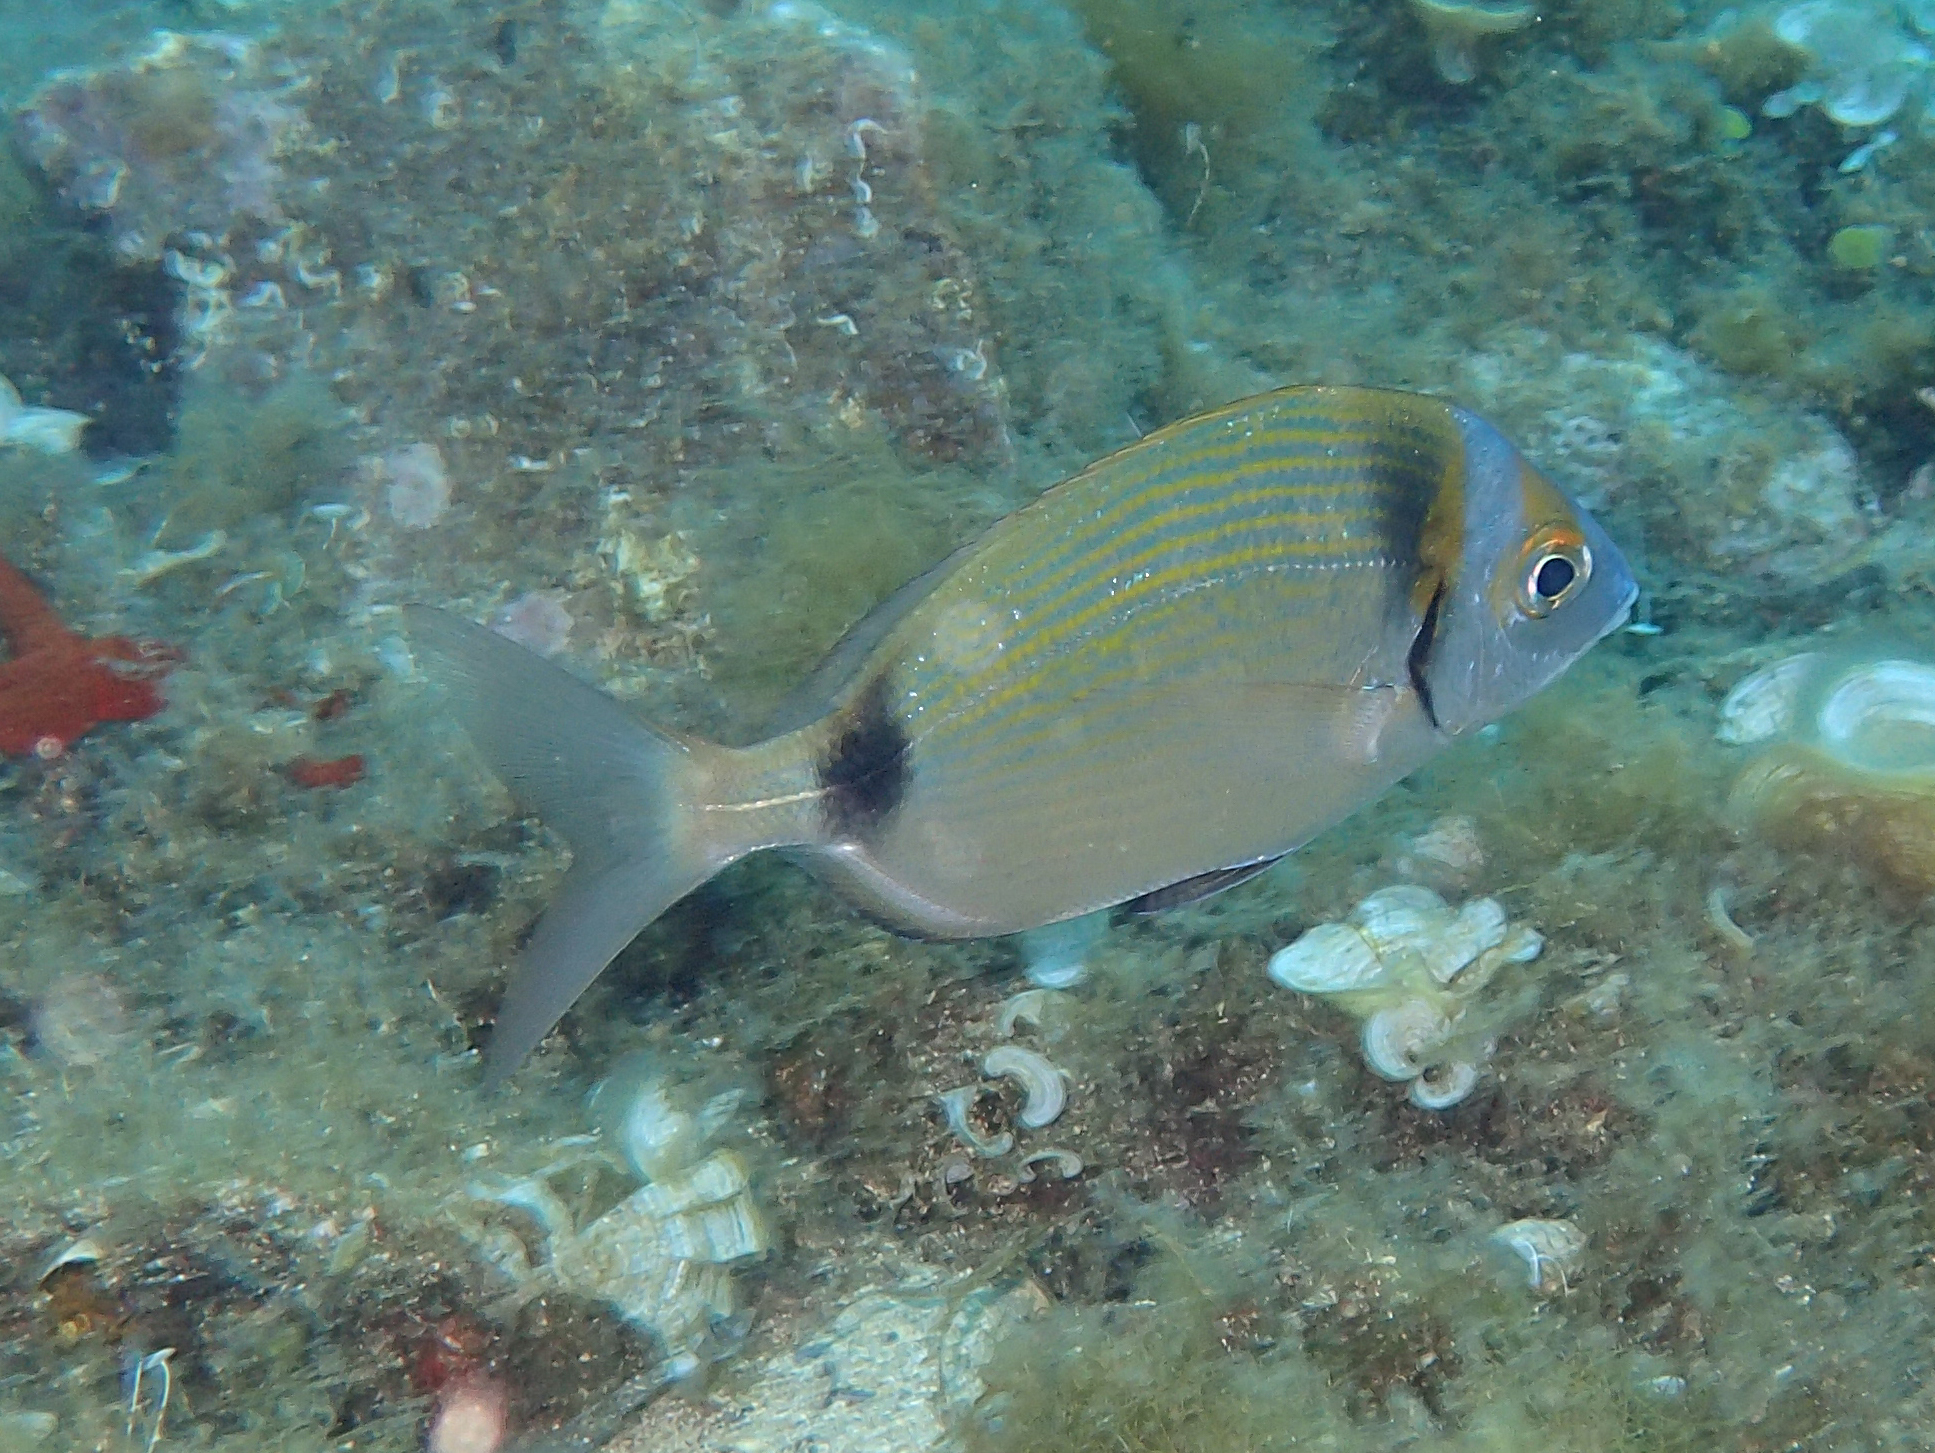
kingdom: Animalia
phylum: Chordata
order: Perciformes
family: Sparidae
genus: Diplodus
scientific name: Diplodus vulgaris
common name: Common two-banded seabream
